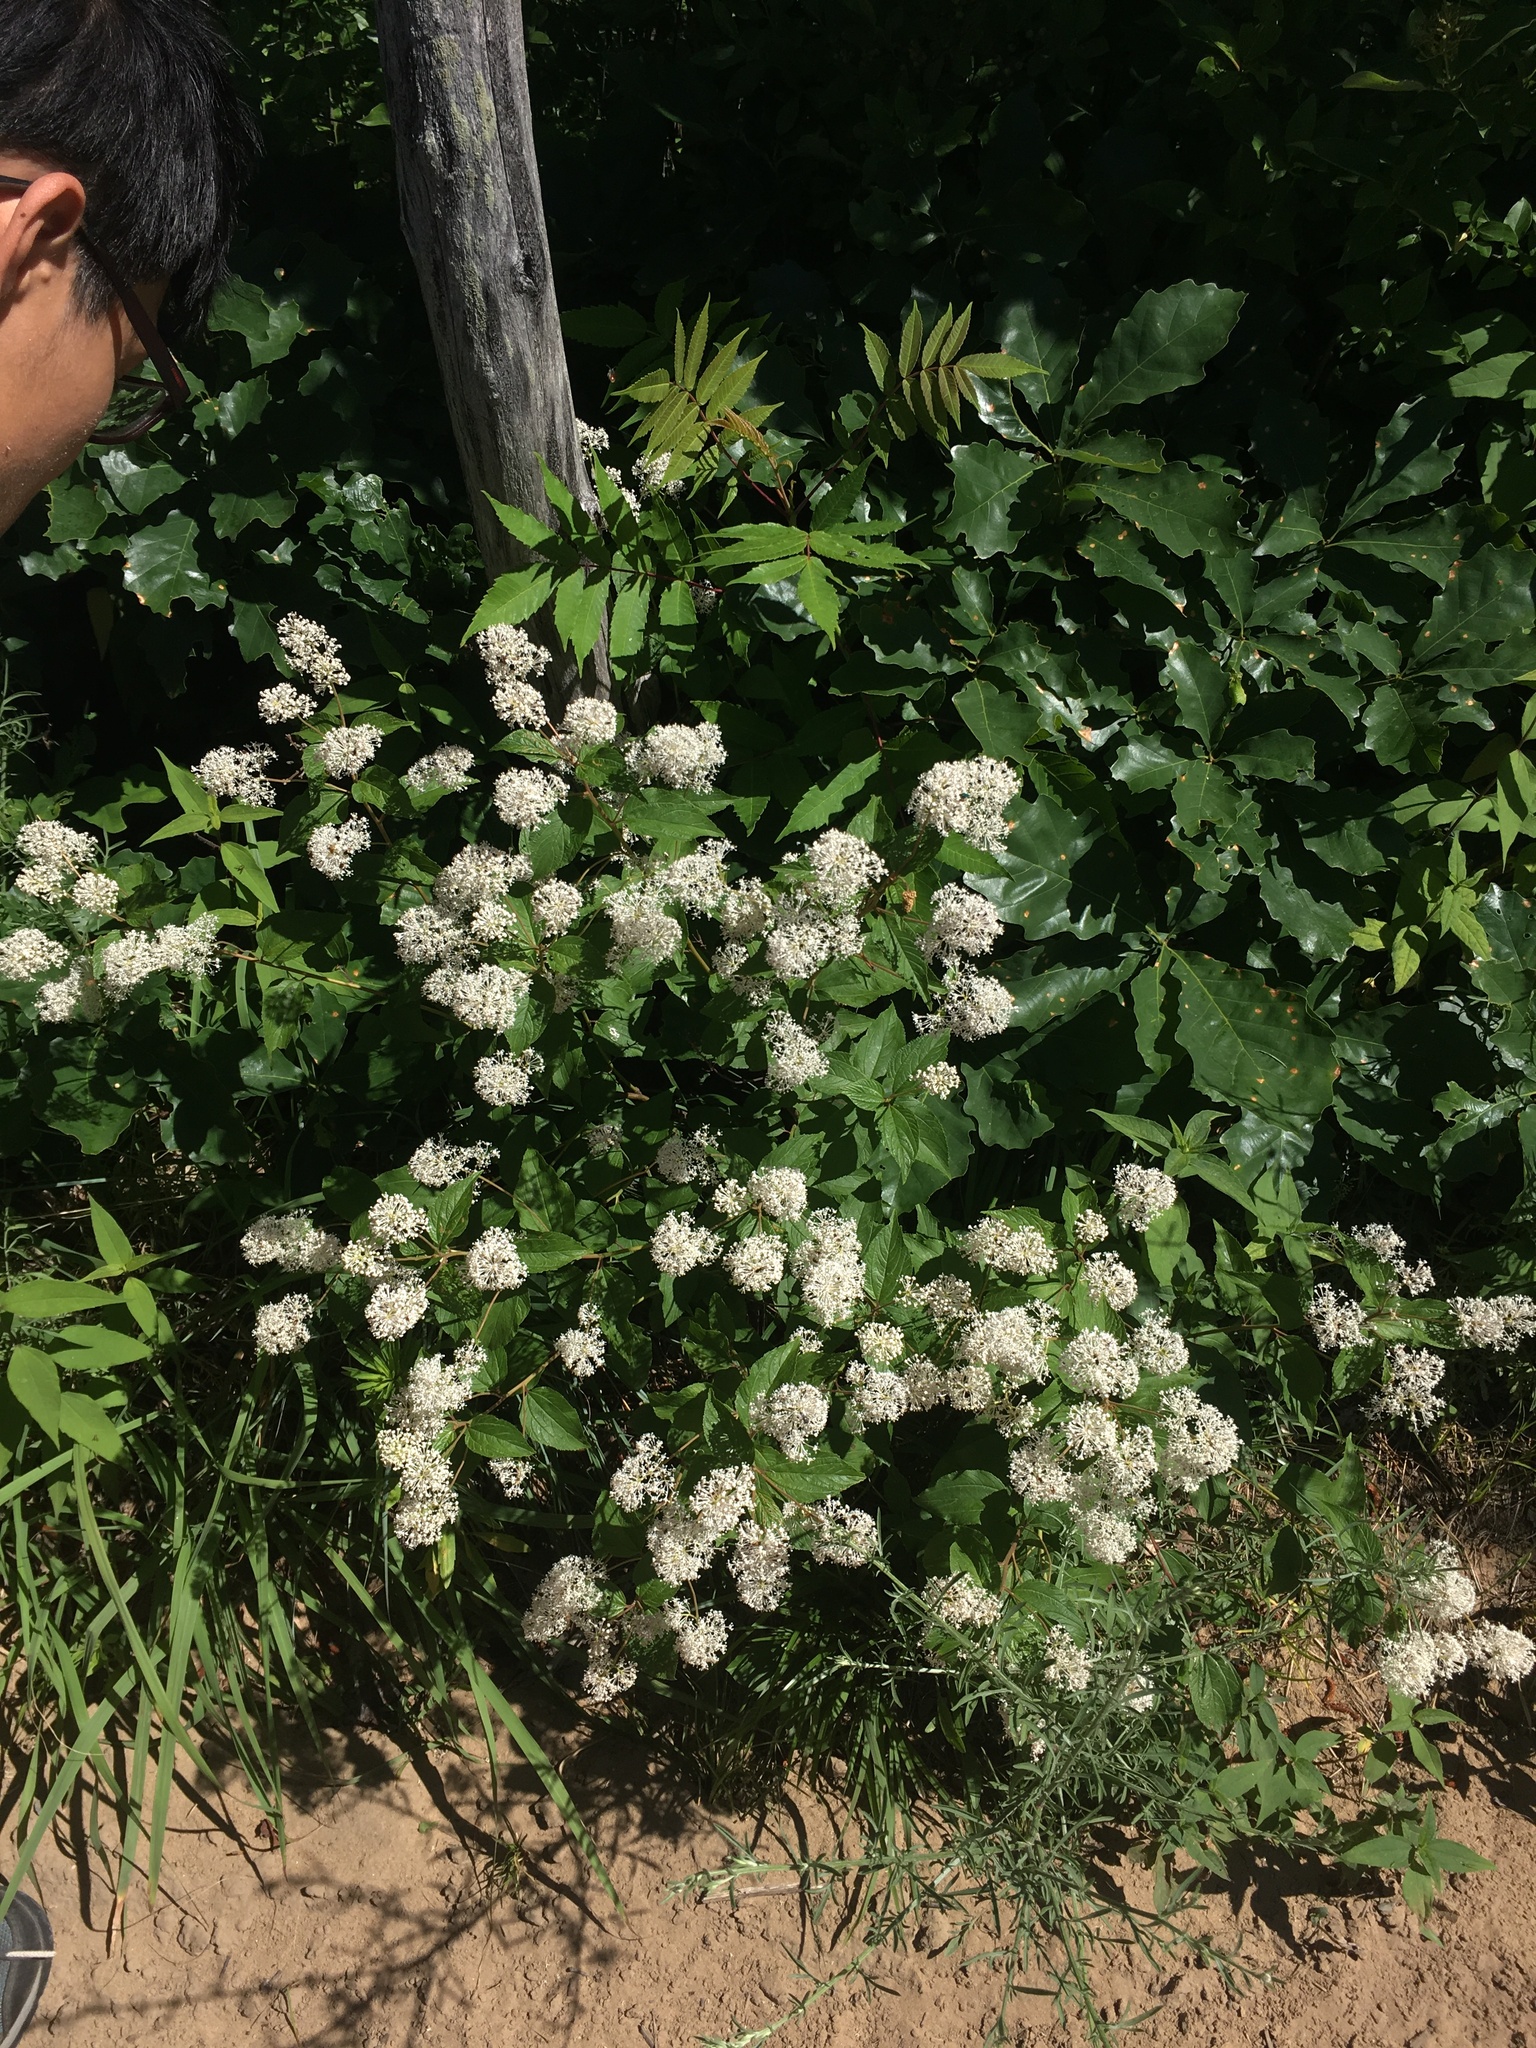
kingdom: Plantae
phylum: Tracheophyta
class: Magnoliopsida
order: Rosales
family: Rhamnaceae
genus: Ceanothus
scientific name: Ceanothus americanus
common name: Redroot
